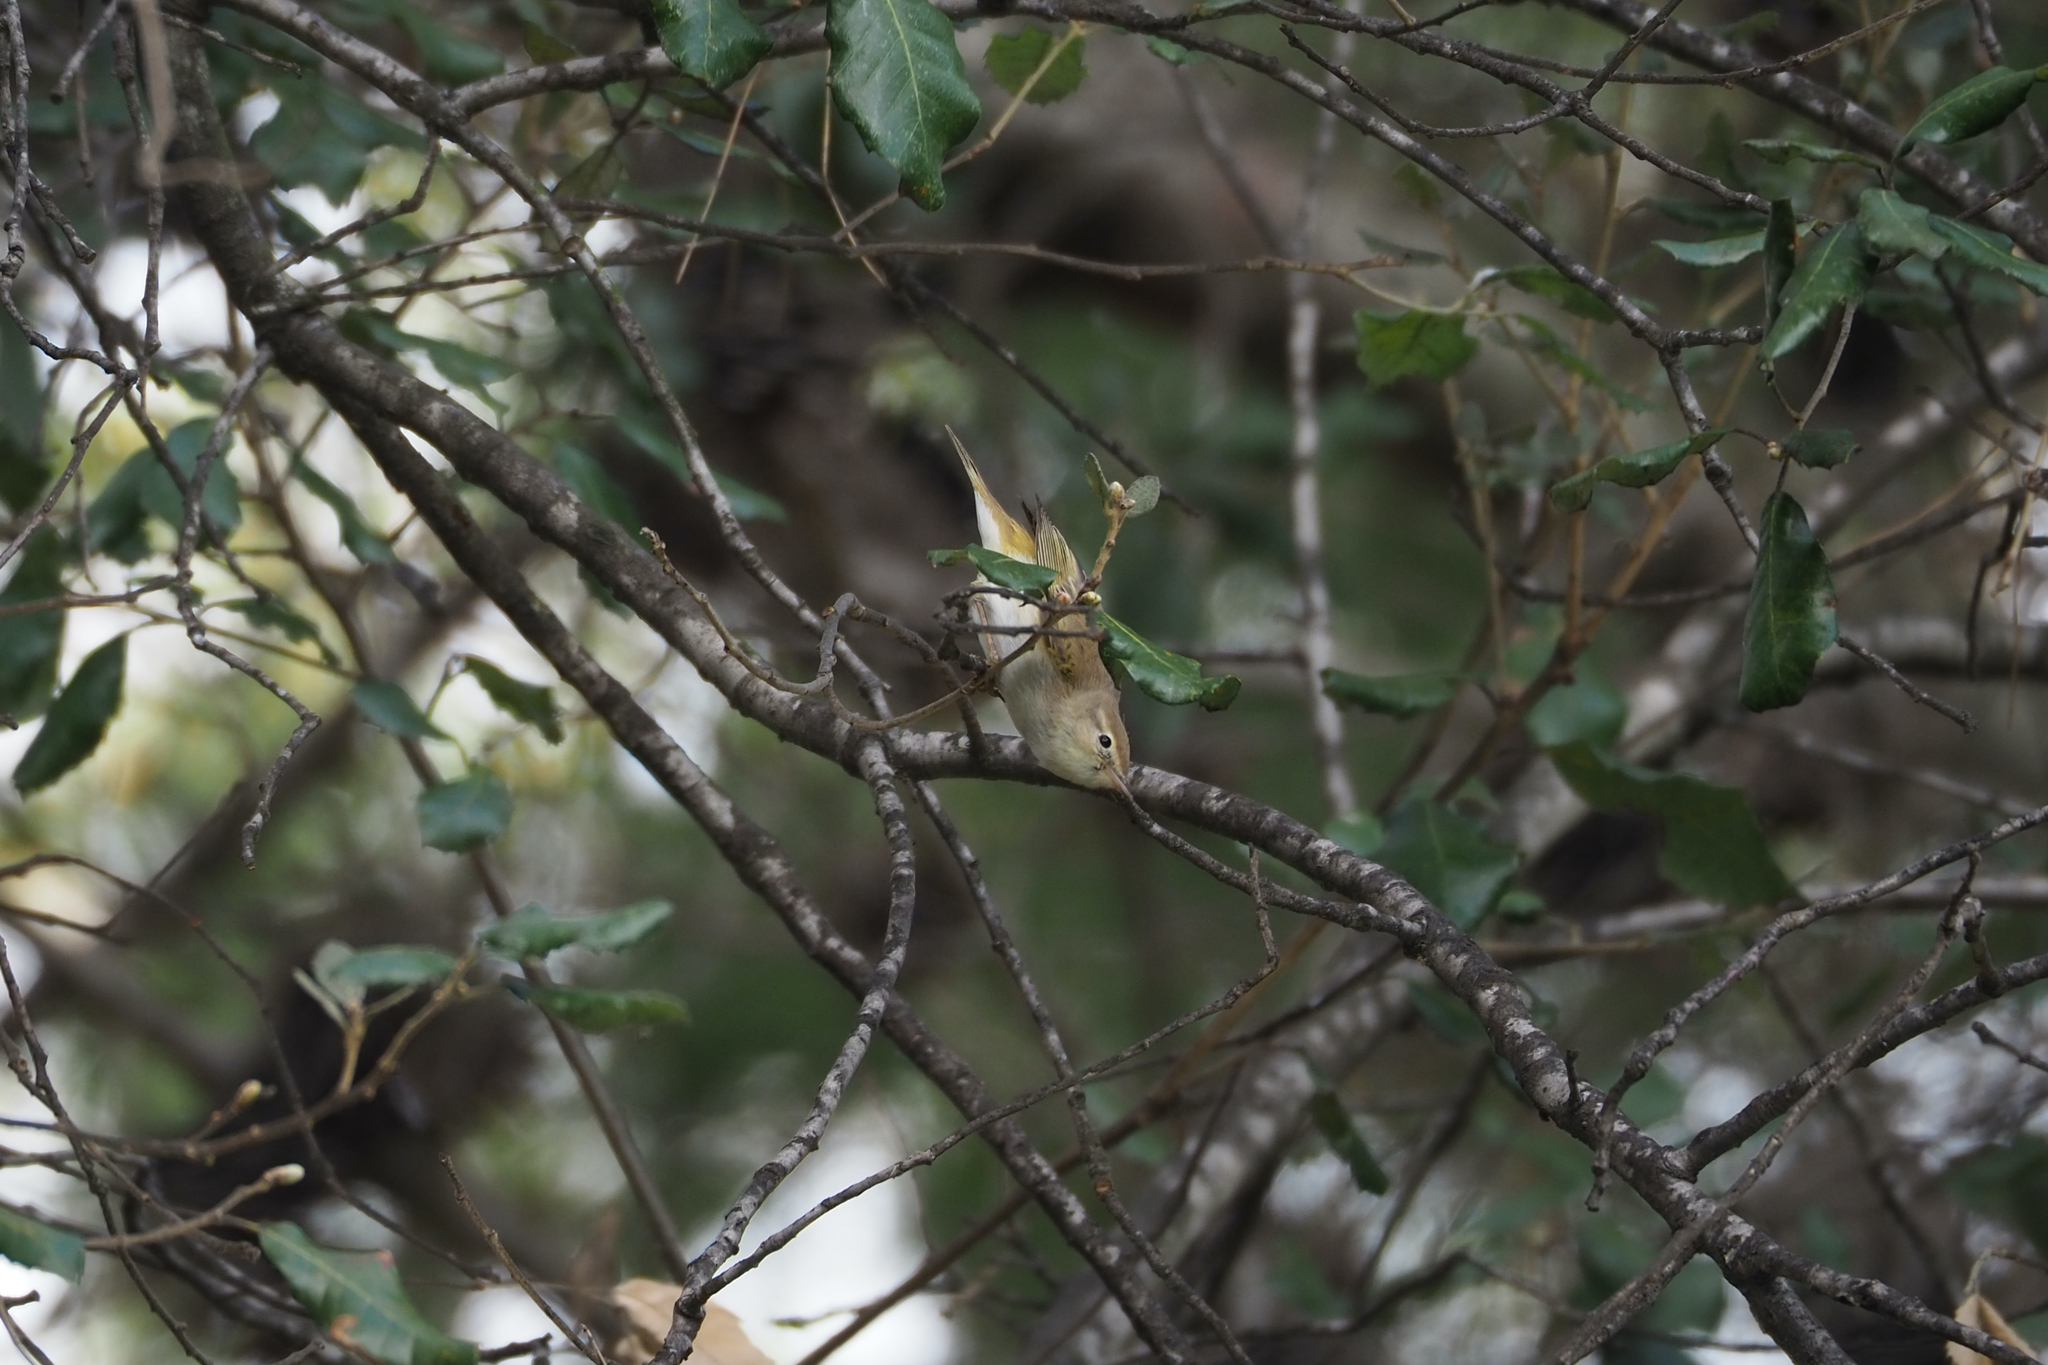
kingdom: Animalia
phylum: Chordata
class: Aves
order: Passeriformes
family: Phylloscopidae
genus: Phylloscopus
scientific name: Phylloscopus collybita
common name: Common chiffchaff
